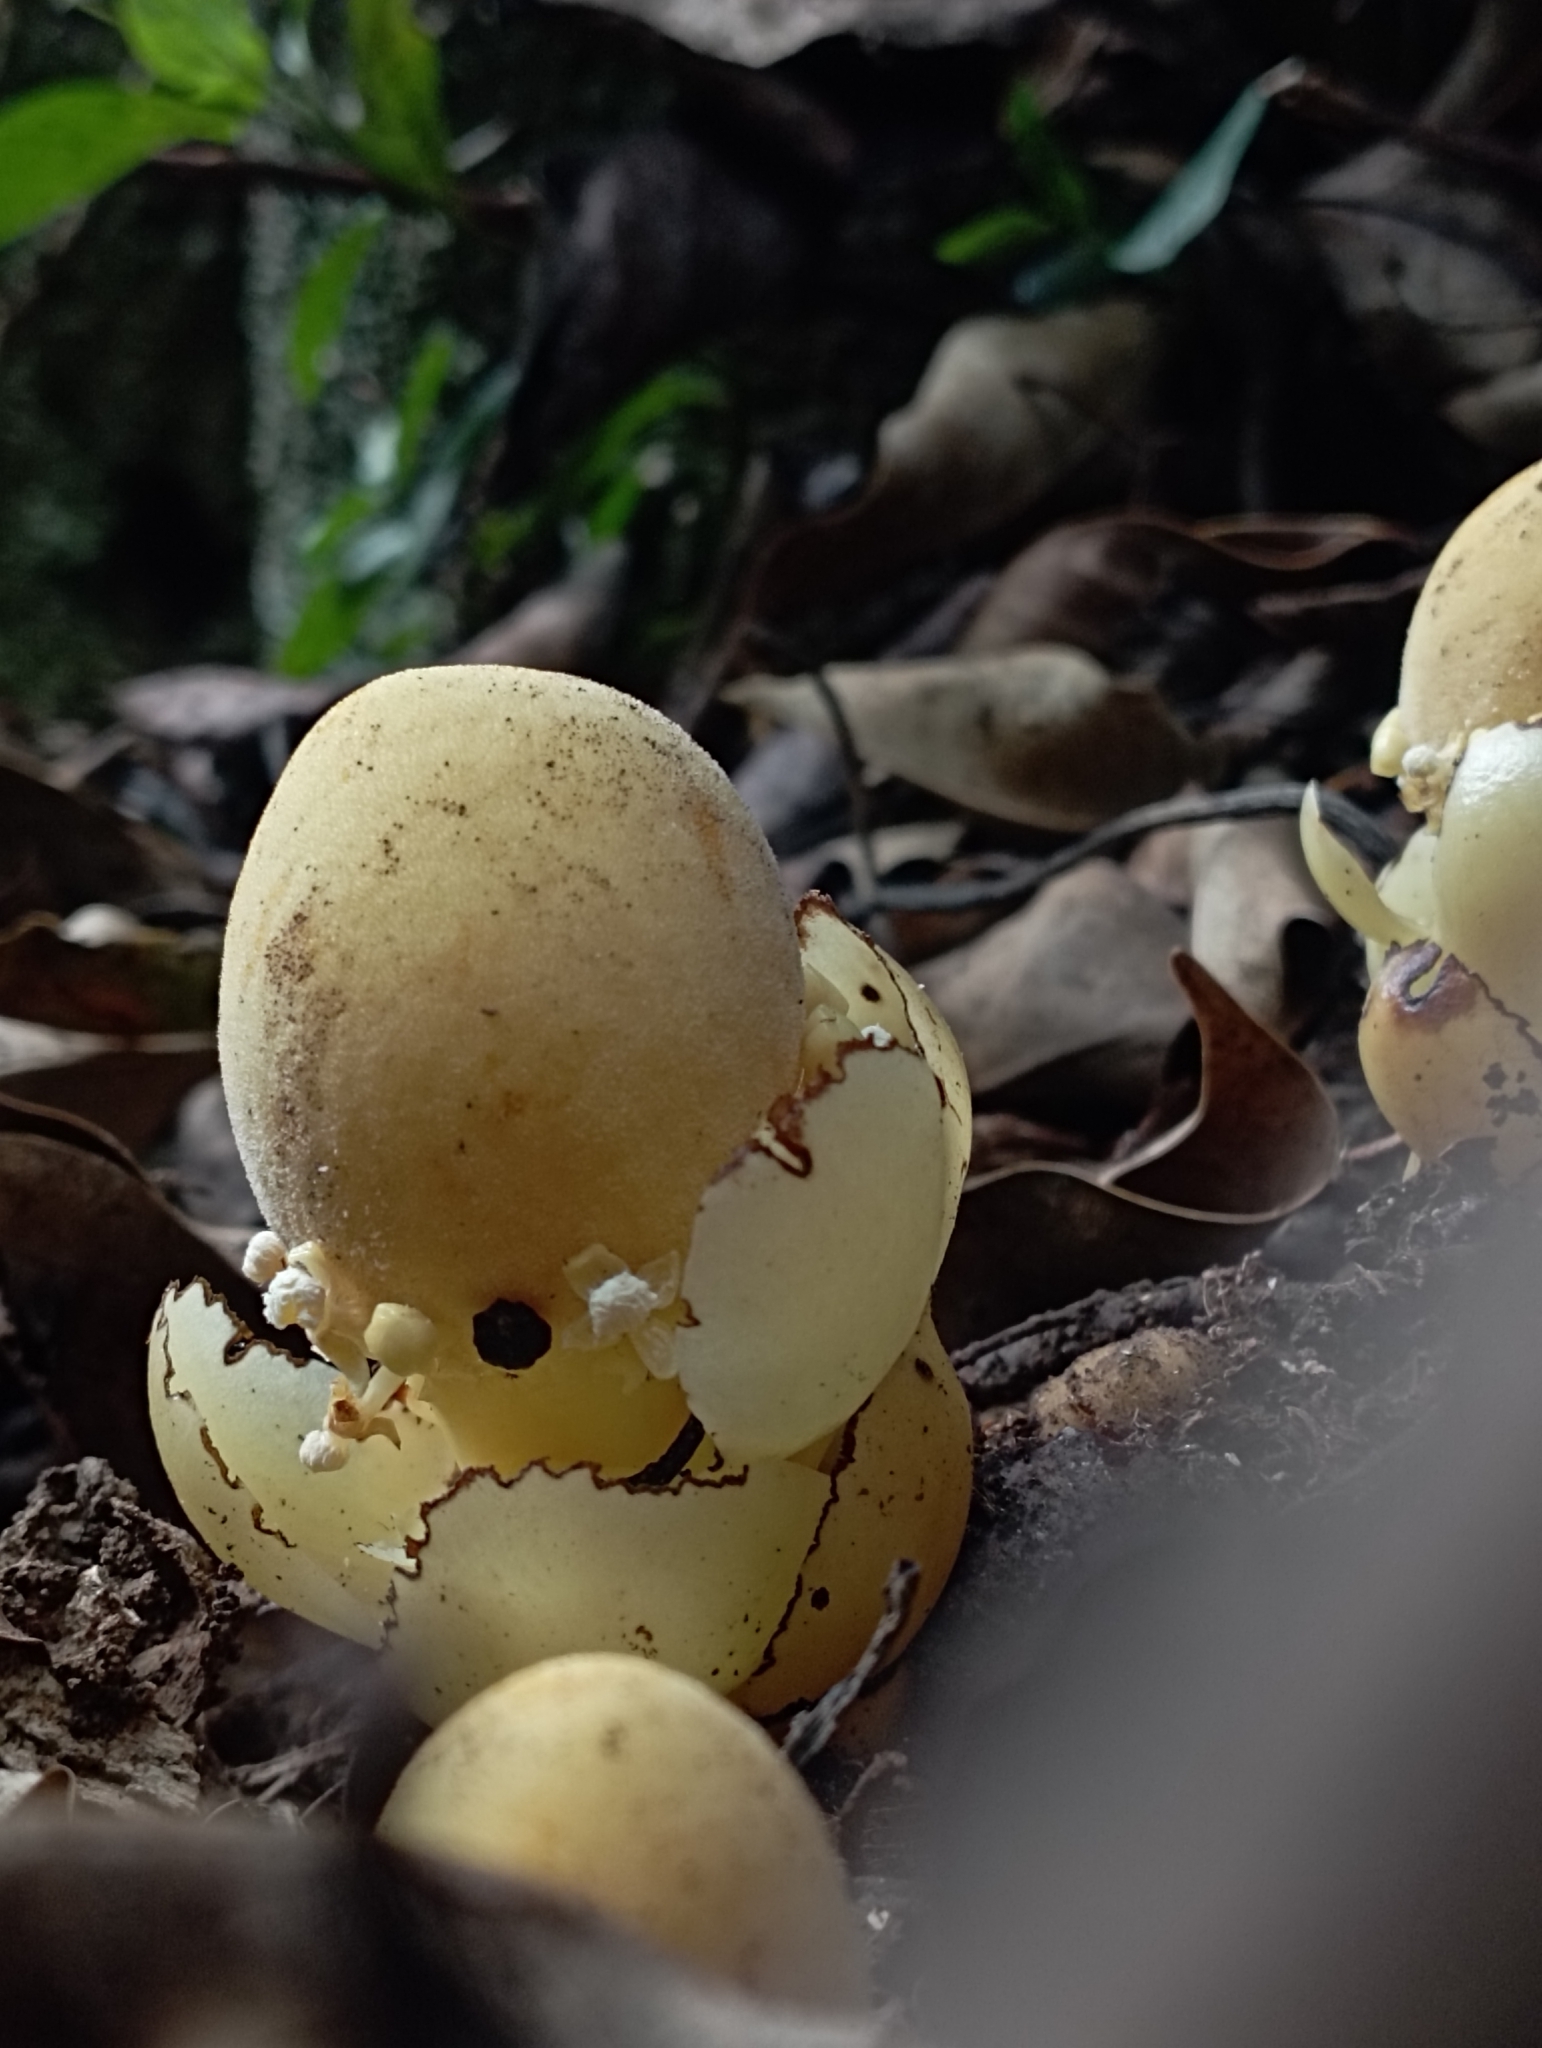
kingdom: Plantae
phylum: Tracheophyta
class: Magnoliopsida
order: Santalales
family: Balanophoraceae
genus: Balanophora
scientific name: Balanophora fungosa
